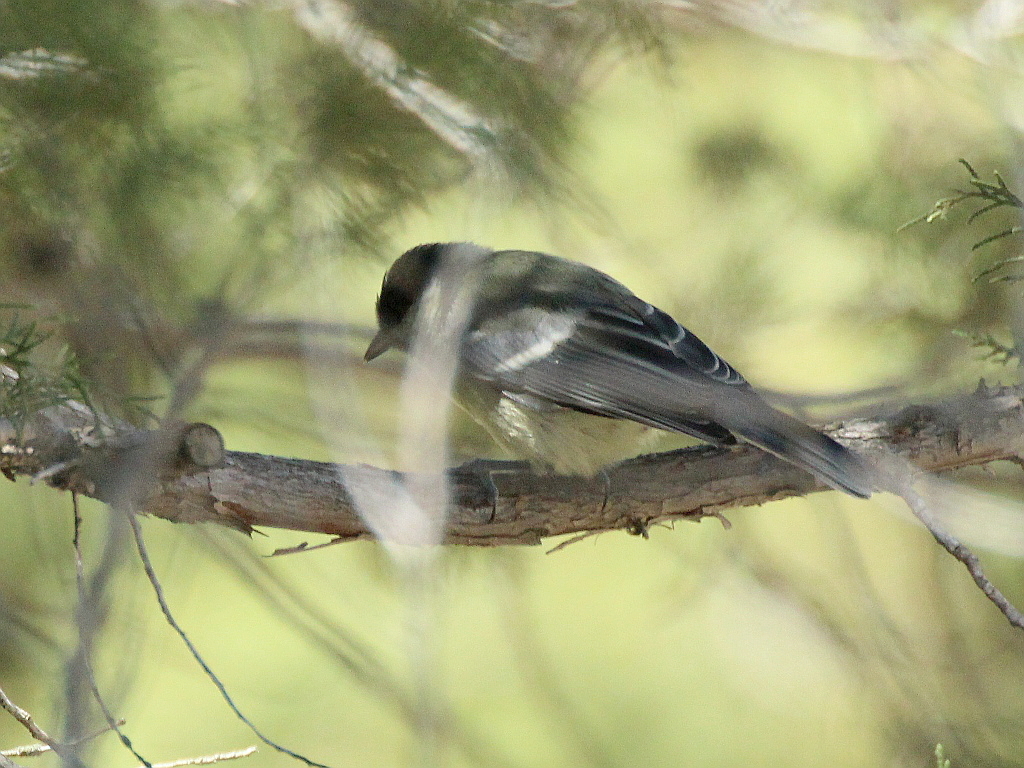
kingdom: Animalia
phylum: Chordata
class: Aves
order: Passeriformes
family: Paridae
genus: Parus
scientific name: Parus major
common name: Great tit
